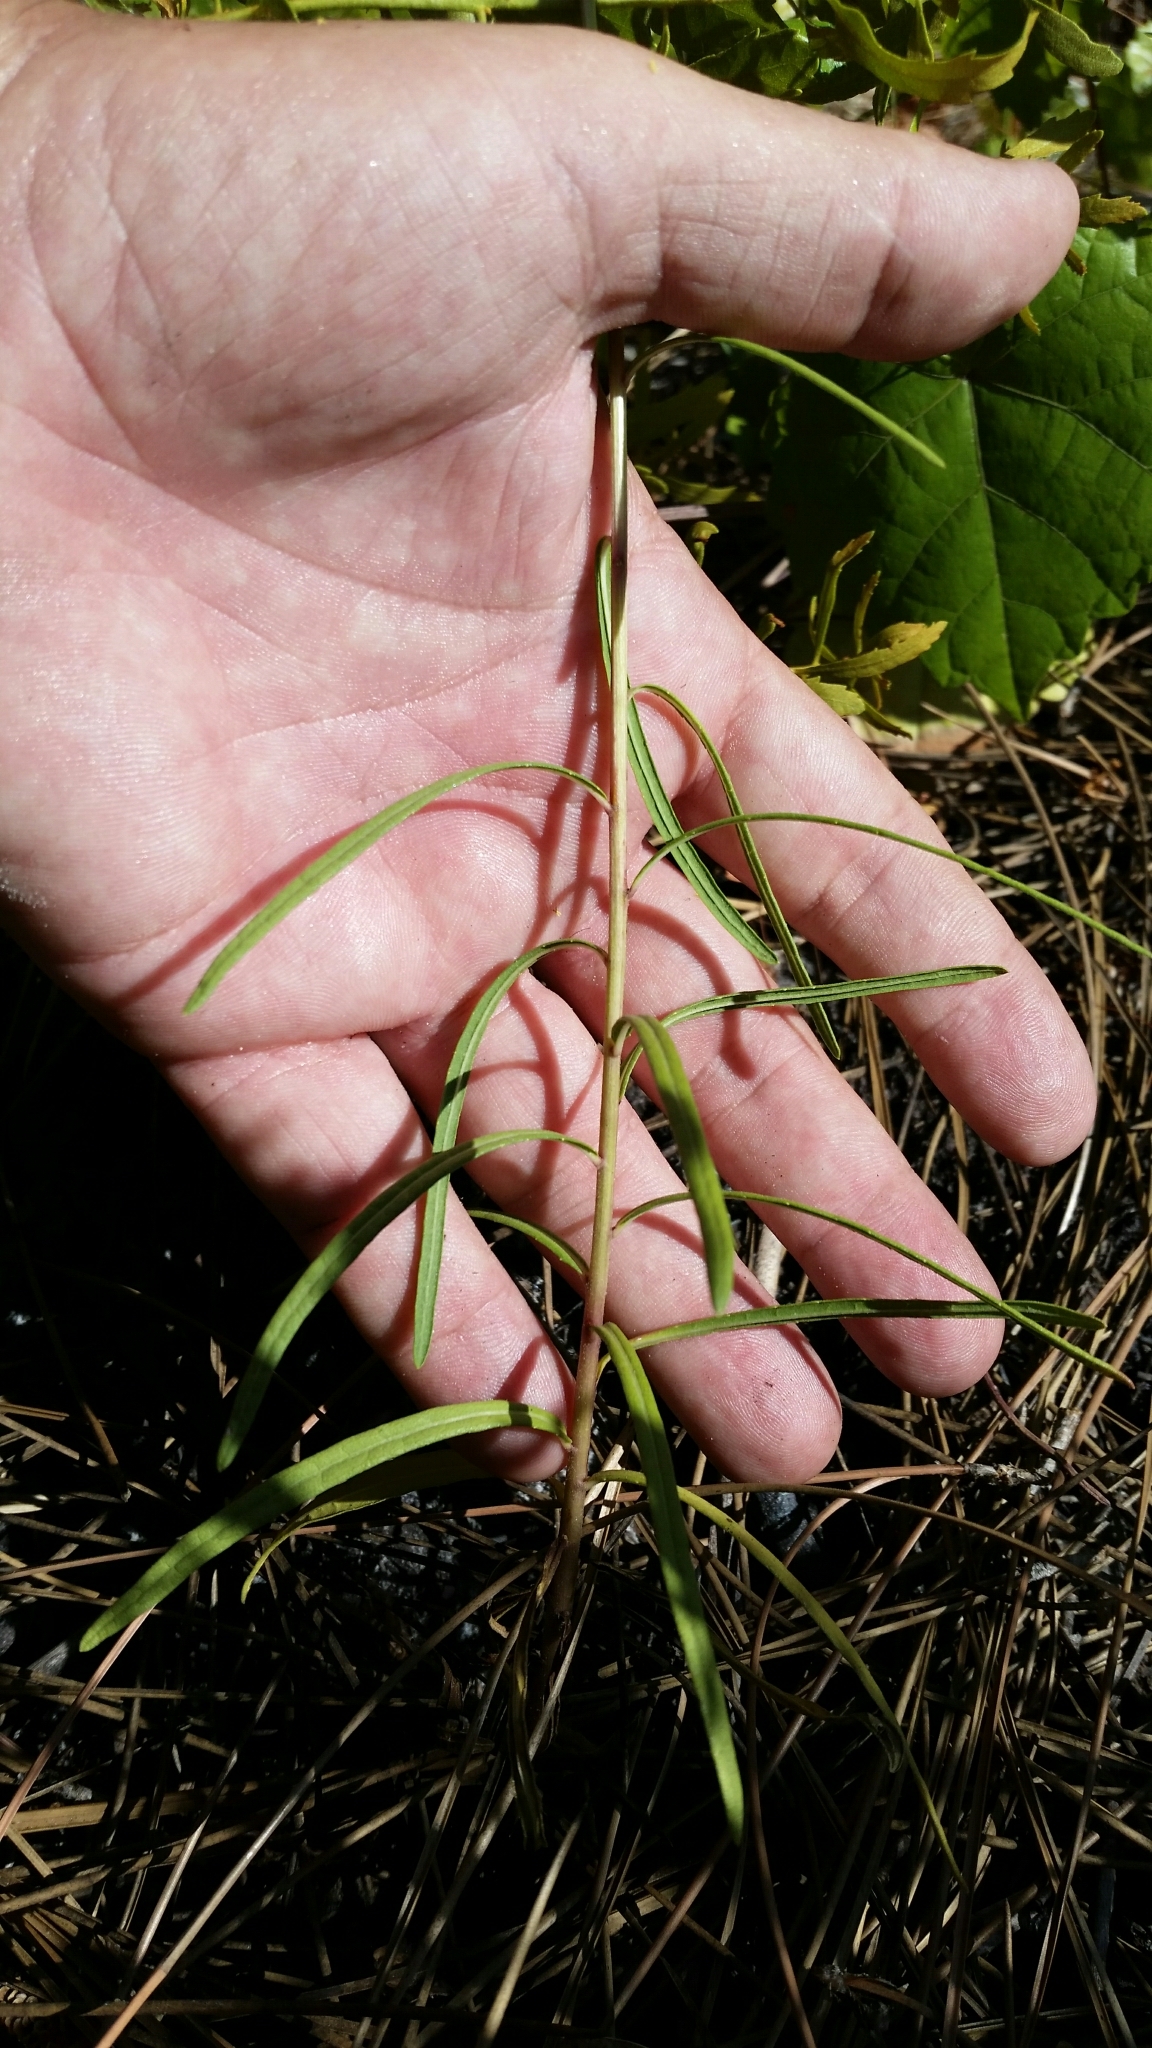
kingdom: Plantae
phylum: Tracheophyta
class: Magnoliopsida
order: Asterales
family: Asteraceae
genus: Vernonia
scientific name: Vernonia blodgettii
